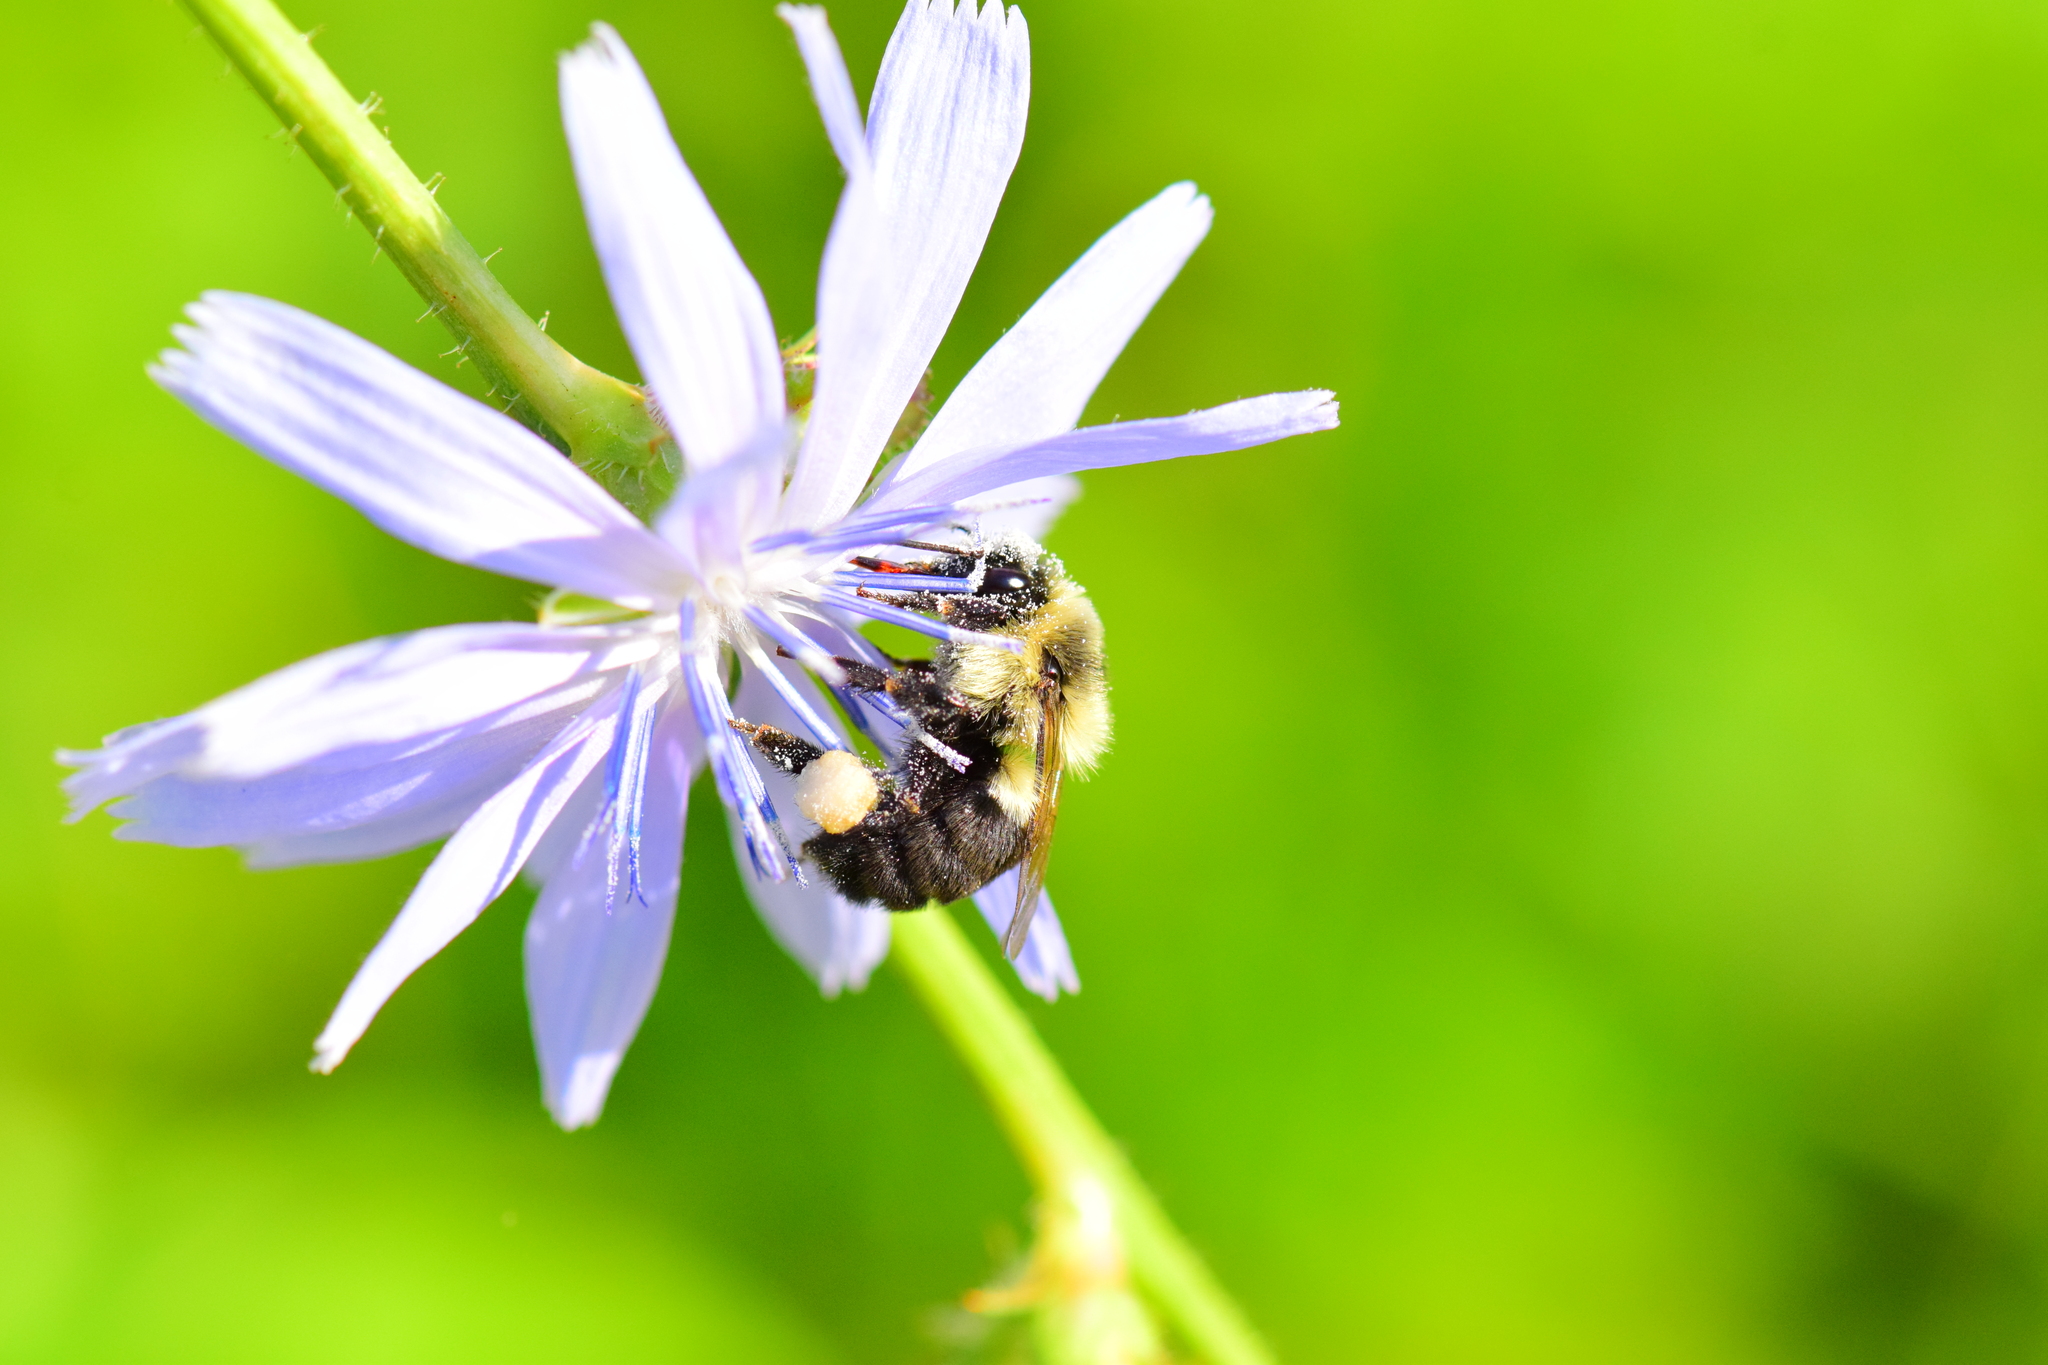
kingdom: Animalia
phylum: Arthropoda
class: Insecta
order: Hymenoptera
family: Apidae
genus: Bombus
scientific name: Bombus impatiens
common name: Common eastern bumble bee
